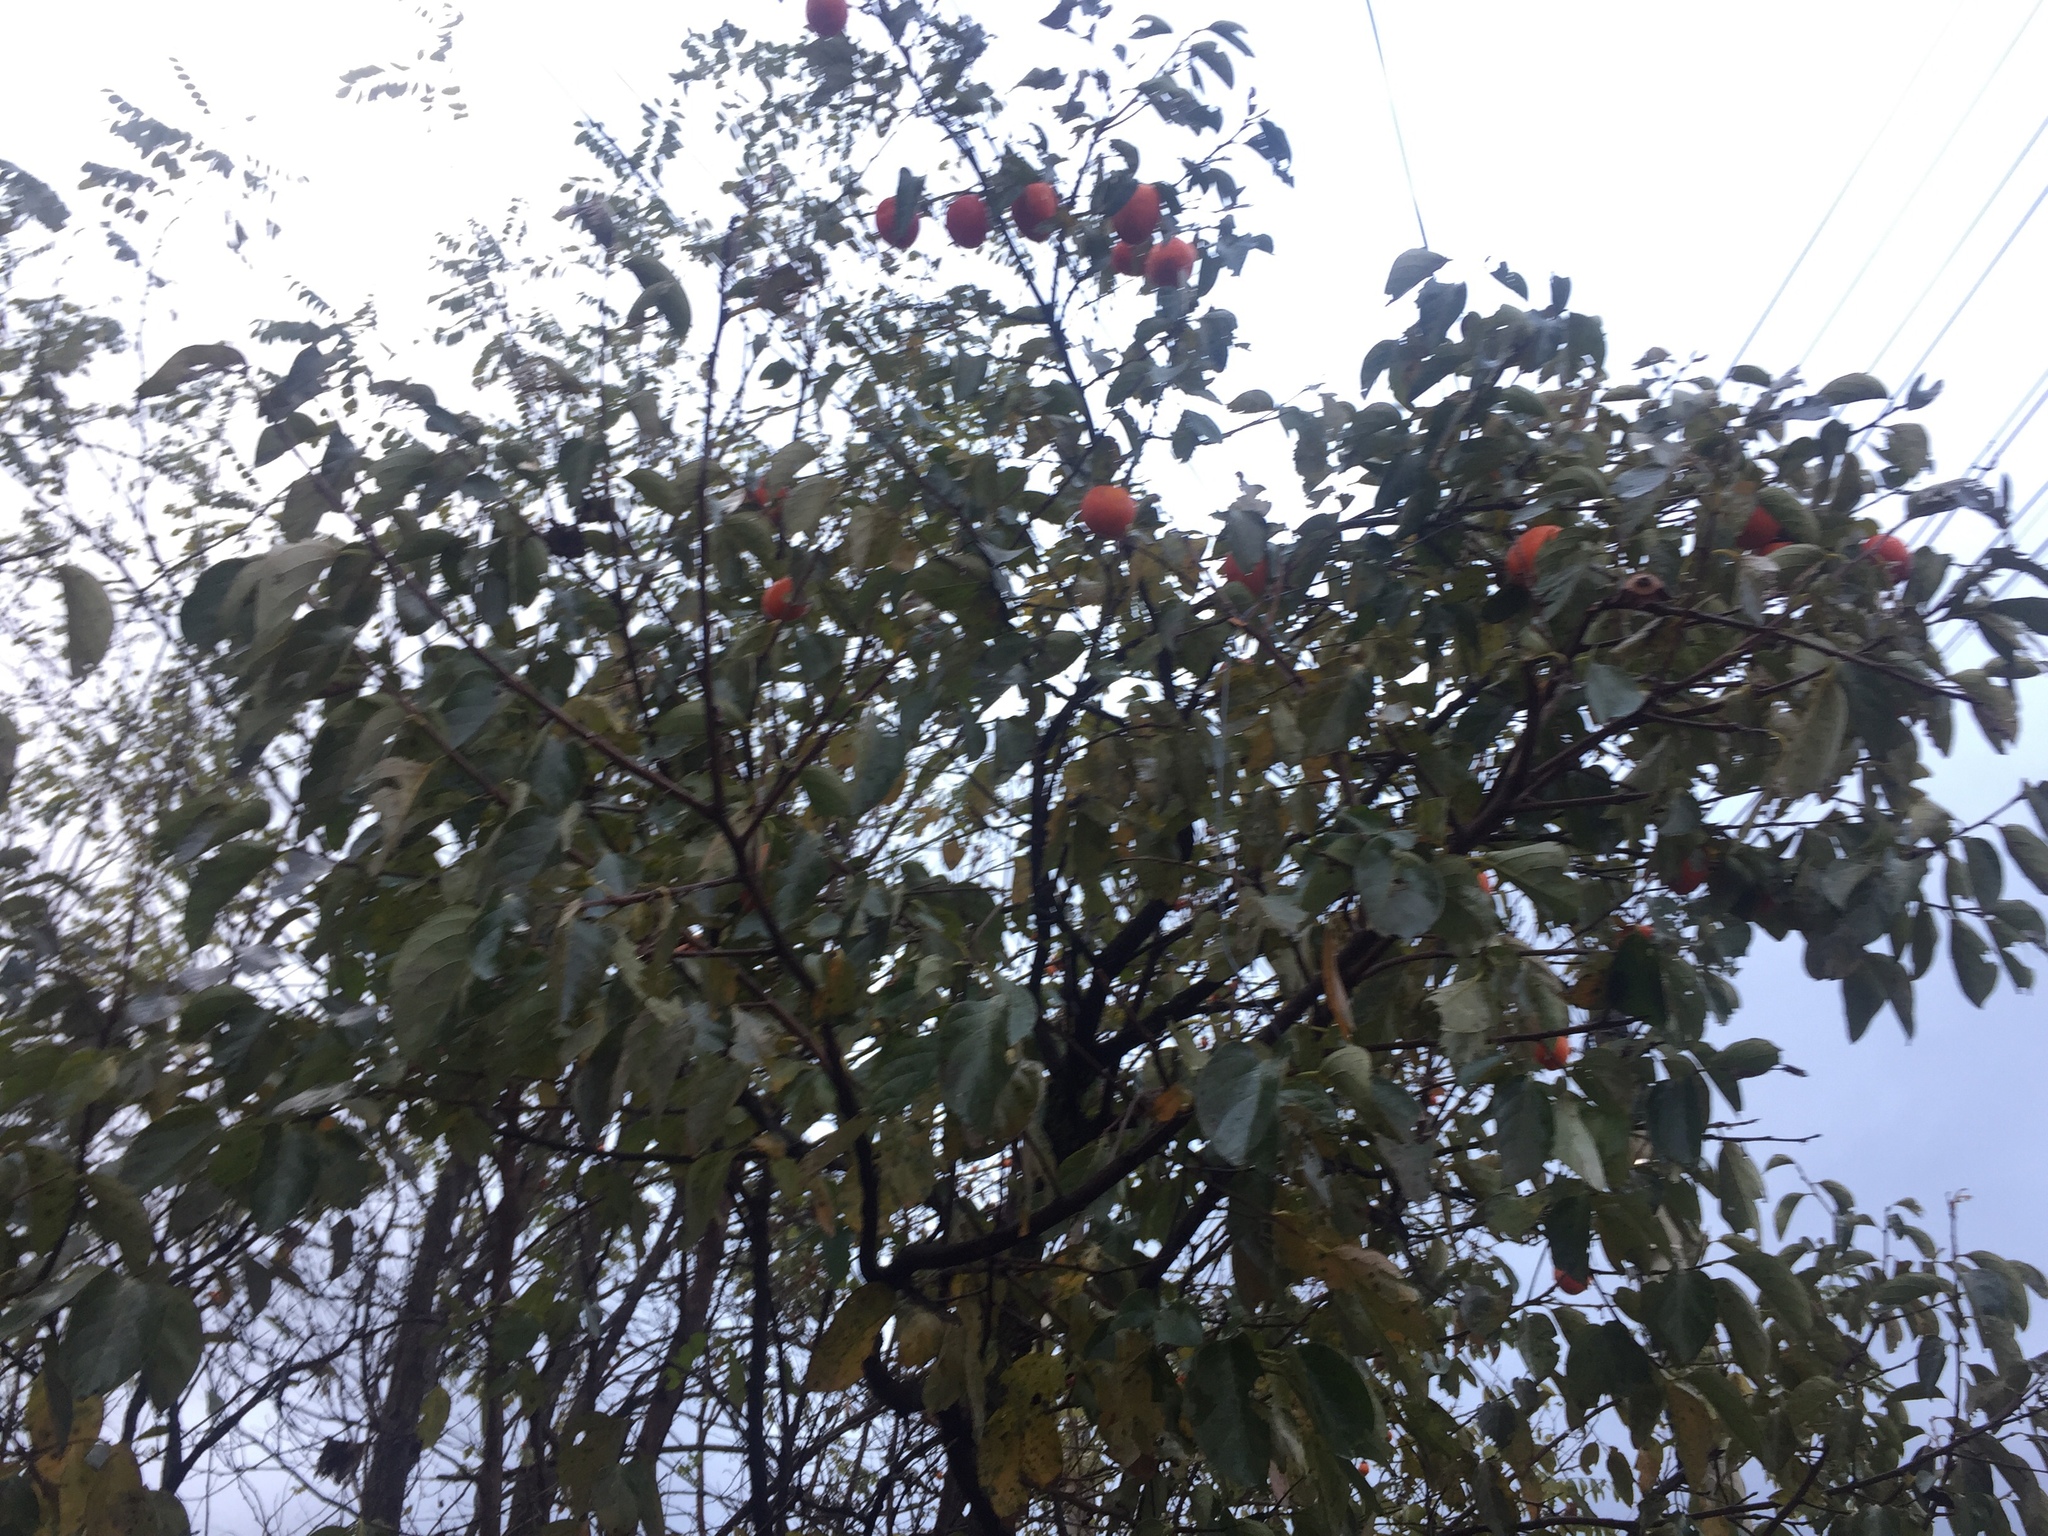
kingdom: Plantae
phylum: Tracheophyta
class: Magnoliopsida
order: Ericales
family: Ebenaceae
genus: Diospyros
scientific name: Diospyros kaki
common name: Persimmon
